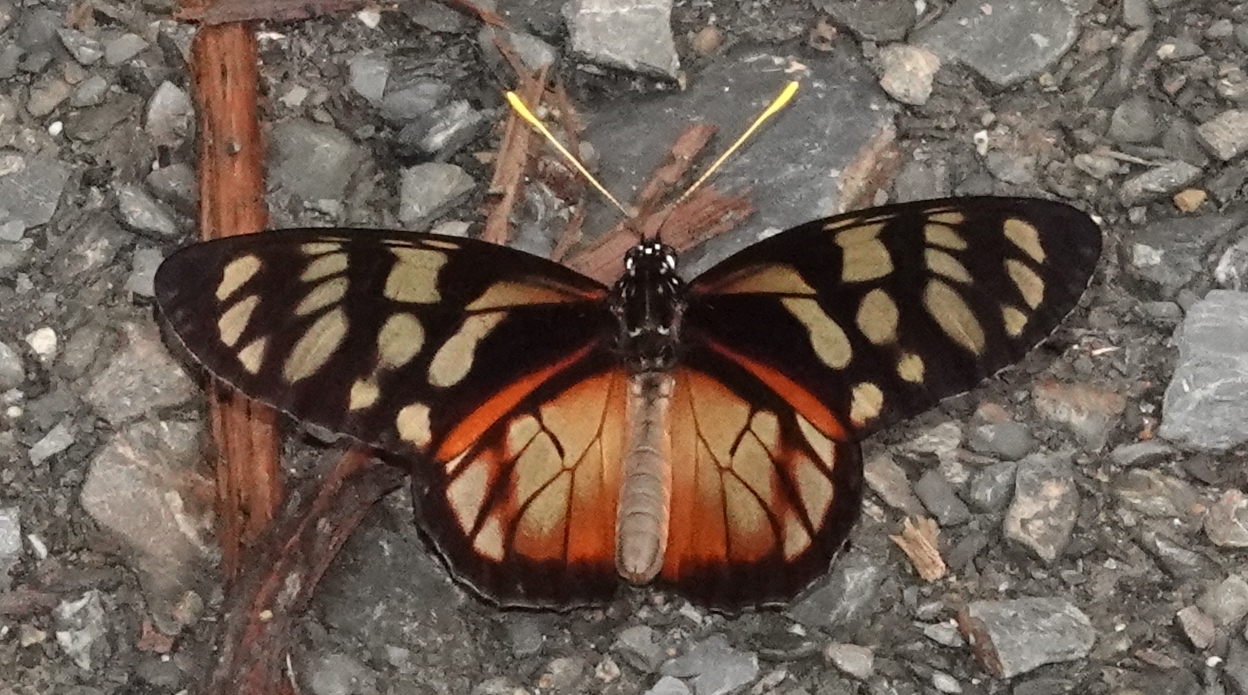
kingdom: Animalia
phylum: Arthropoda
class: Insecta
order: Lepidoptera
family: Nymphalidae
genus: Lycorea
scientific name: Lycorea ilione
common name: Clearwing mimic-queen
